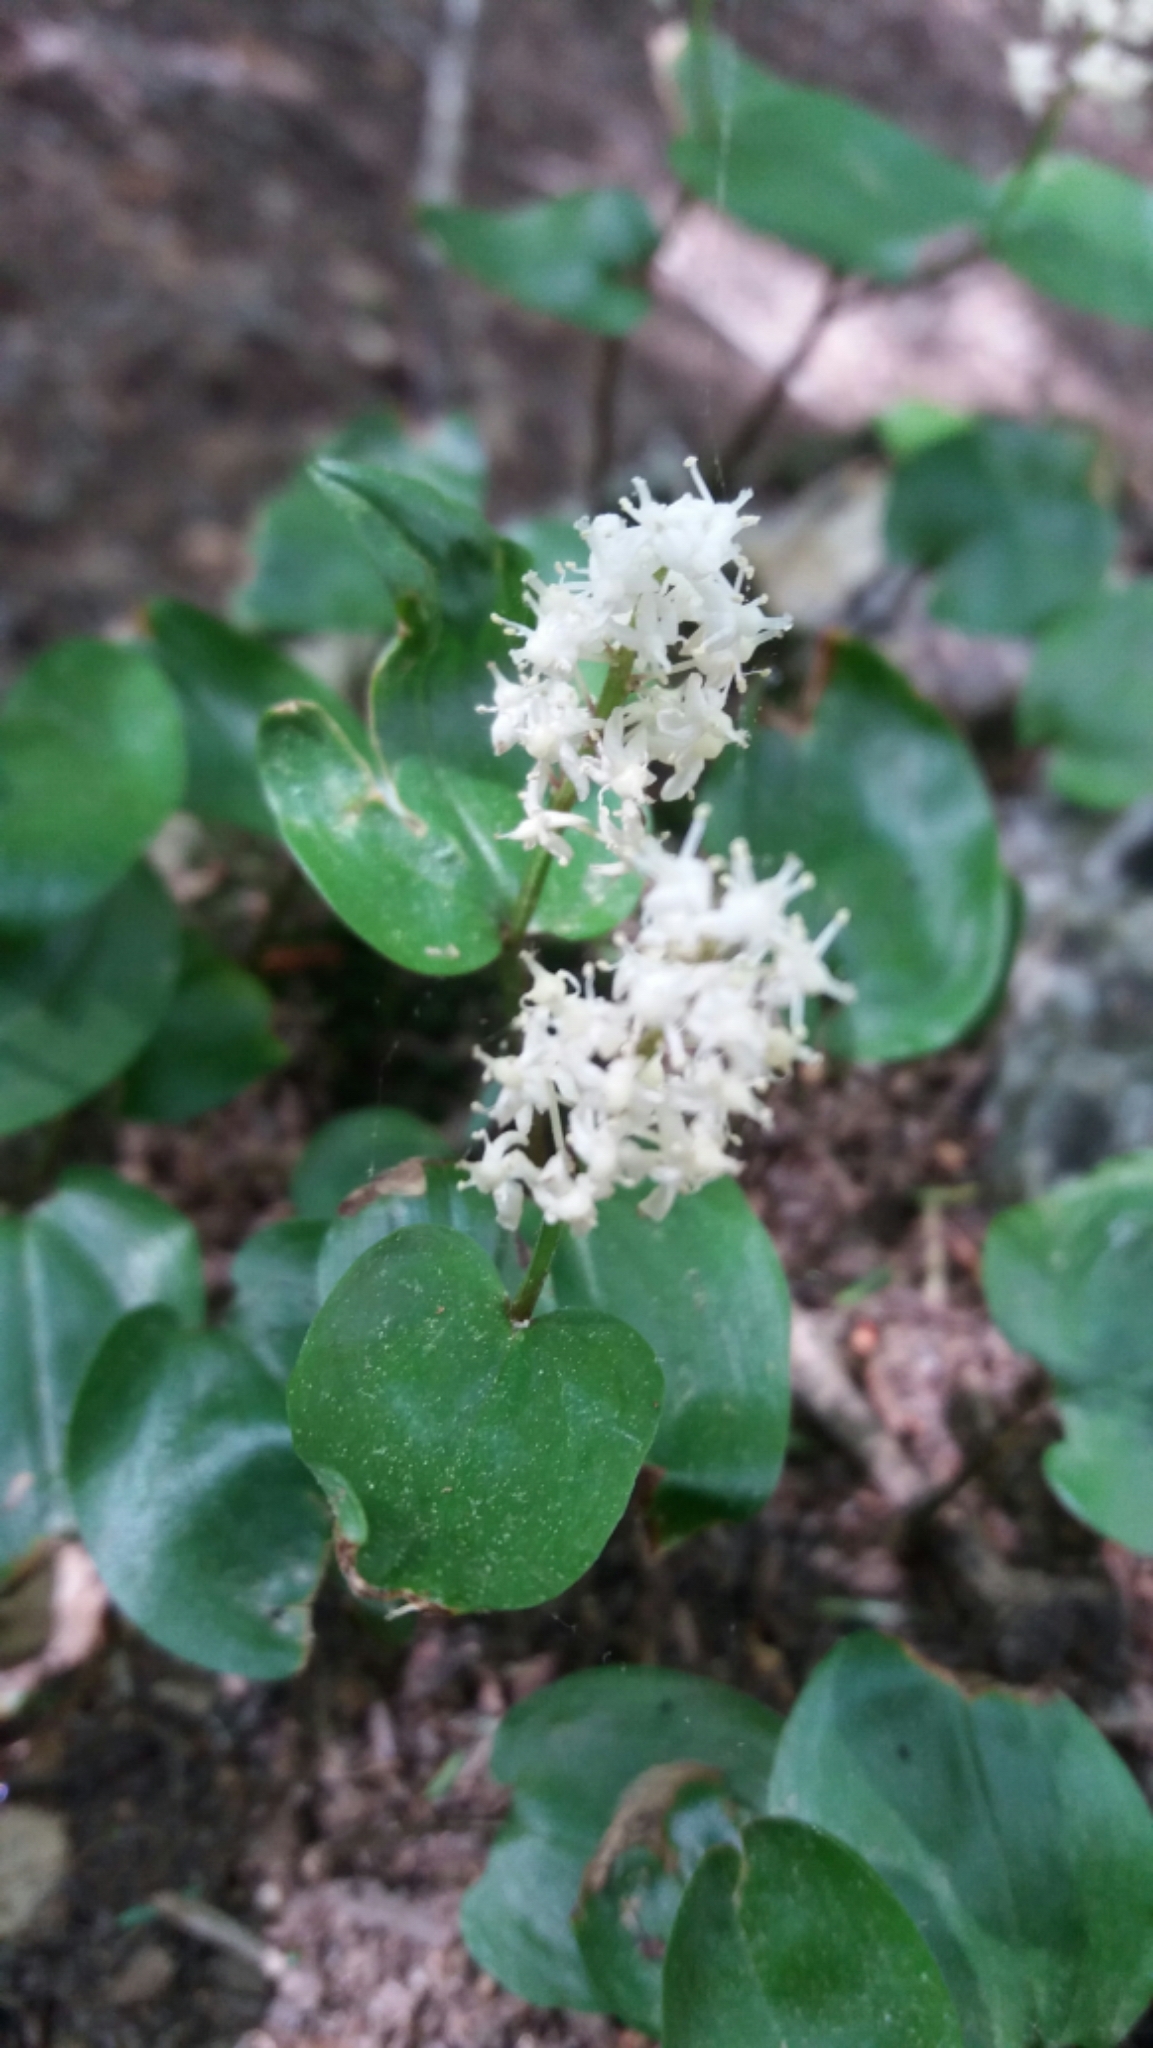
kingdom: Plantae
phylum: Tracheophyta
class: Liliopsida
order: Asparagales
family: Asparagaceae
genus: Maianthemum
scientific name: Maianthemum canadense
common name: False lily-of-the-valley
